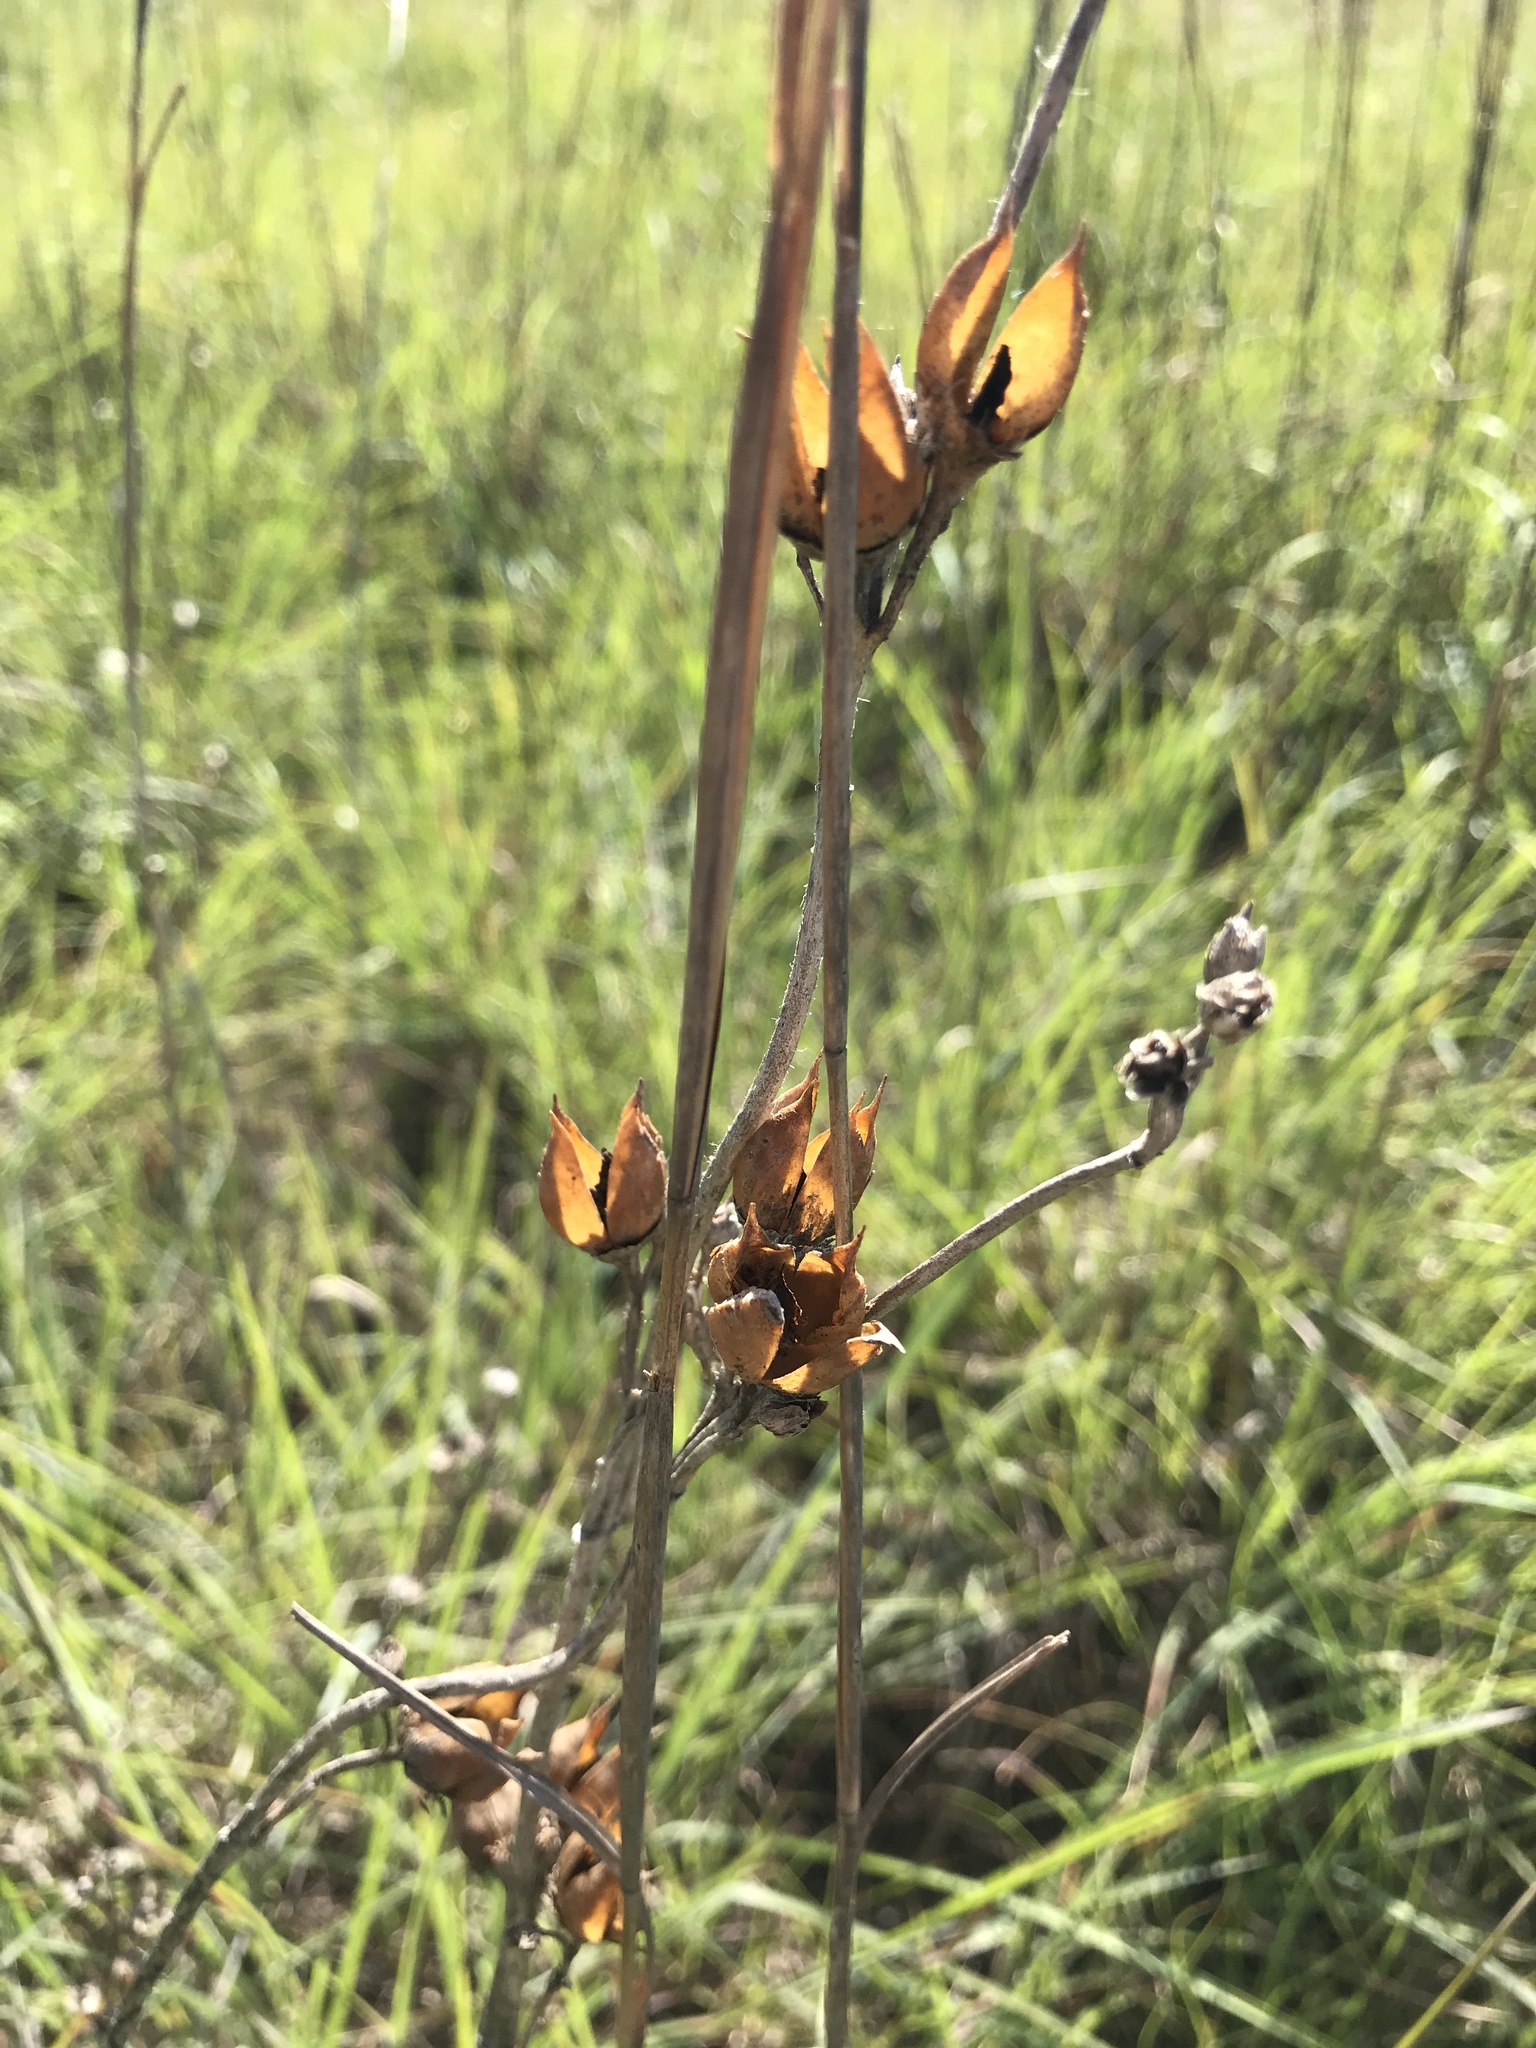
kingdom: Plantae
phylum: Tracheophyta
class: Magnoliopsida
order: Lamiales
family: Plantaginaceae
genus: Penstemon
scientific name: Penstemon cobaea
